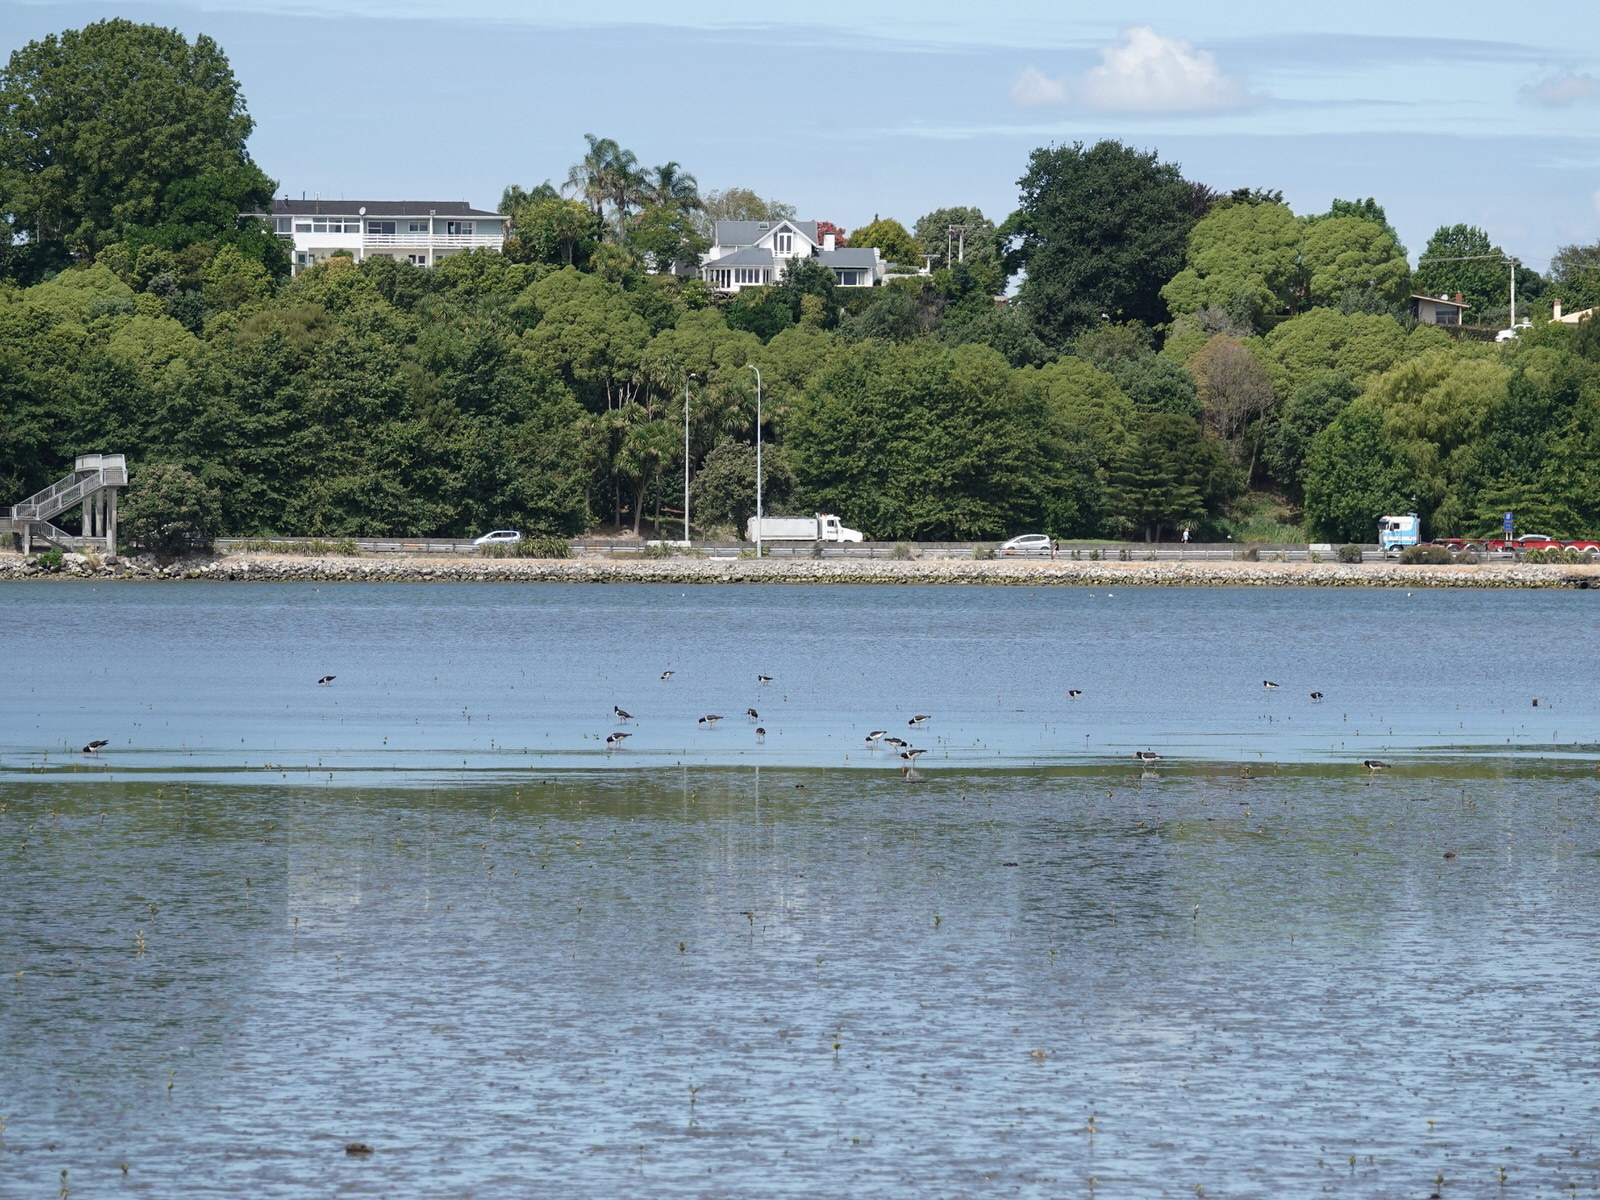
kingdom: Animalia
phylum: Chordata
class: Aves
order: Charadriiformes
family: Haematopodidae
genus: Haematopus
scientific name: Haematopus finschi
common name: South island oystercatcher
